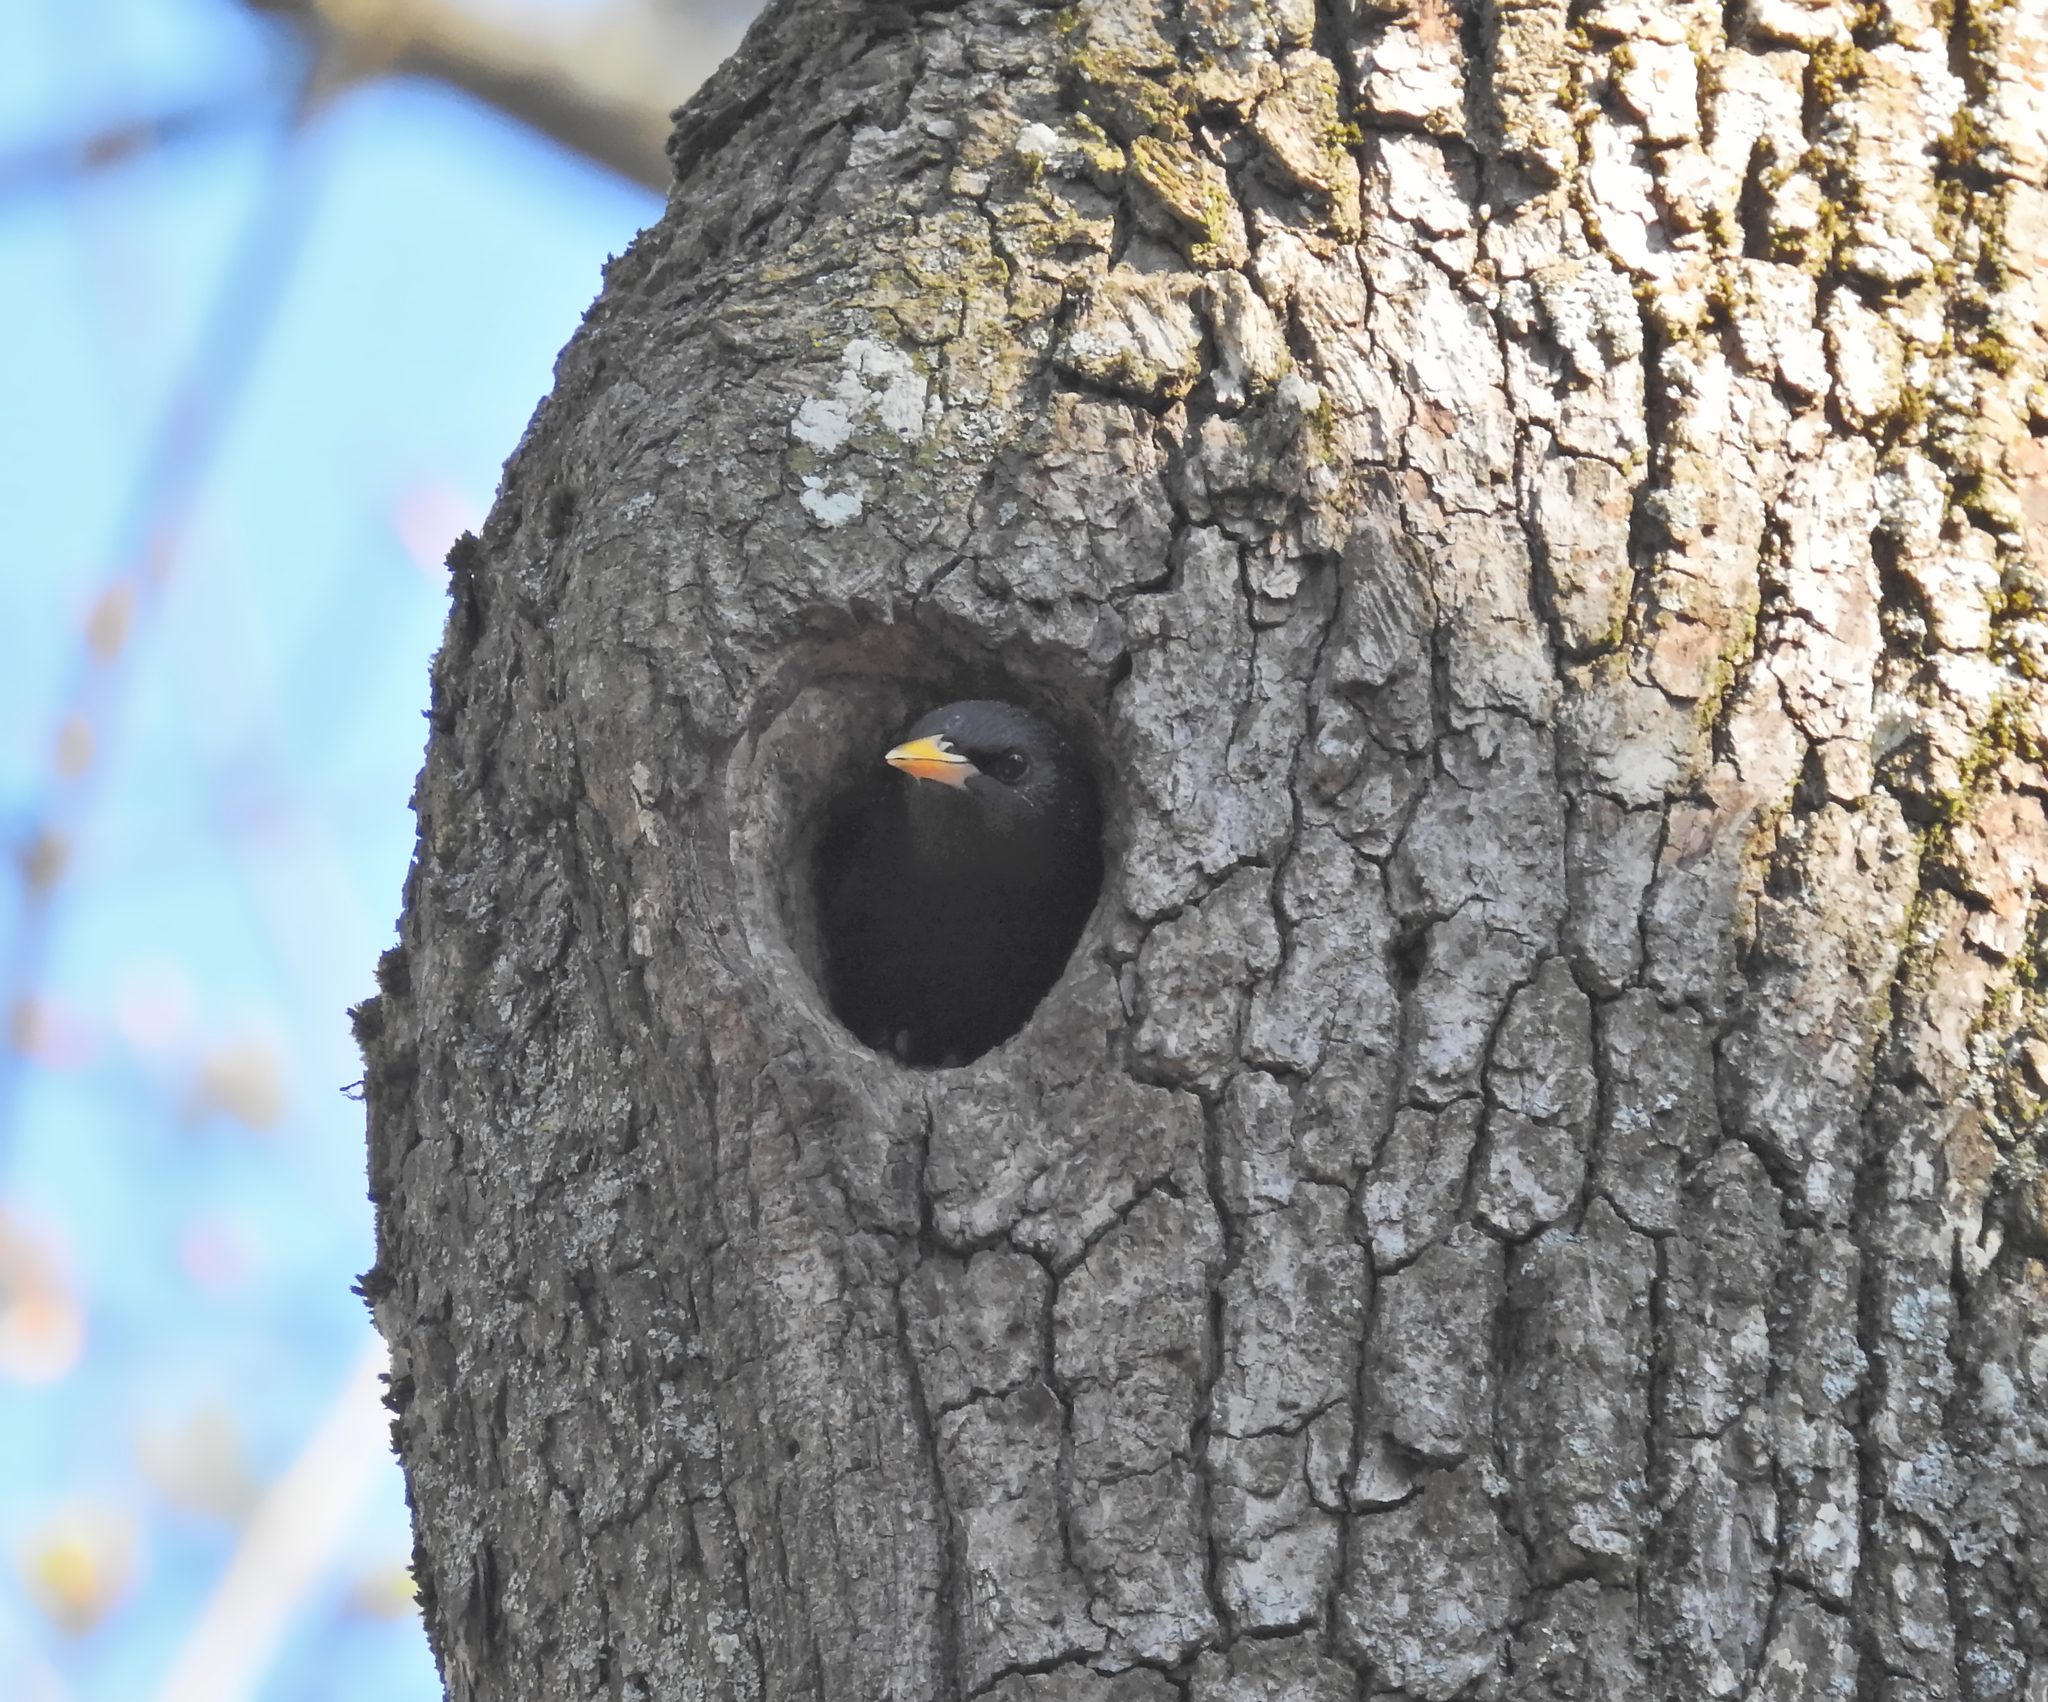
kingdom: Animalia
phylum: Chordata
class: Aves
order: Passeriformes
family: Sturnidae
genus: Sturnus
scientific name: Sturnus vulgaris
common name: Common starling
